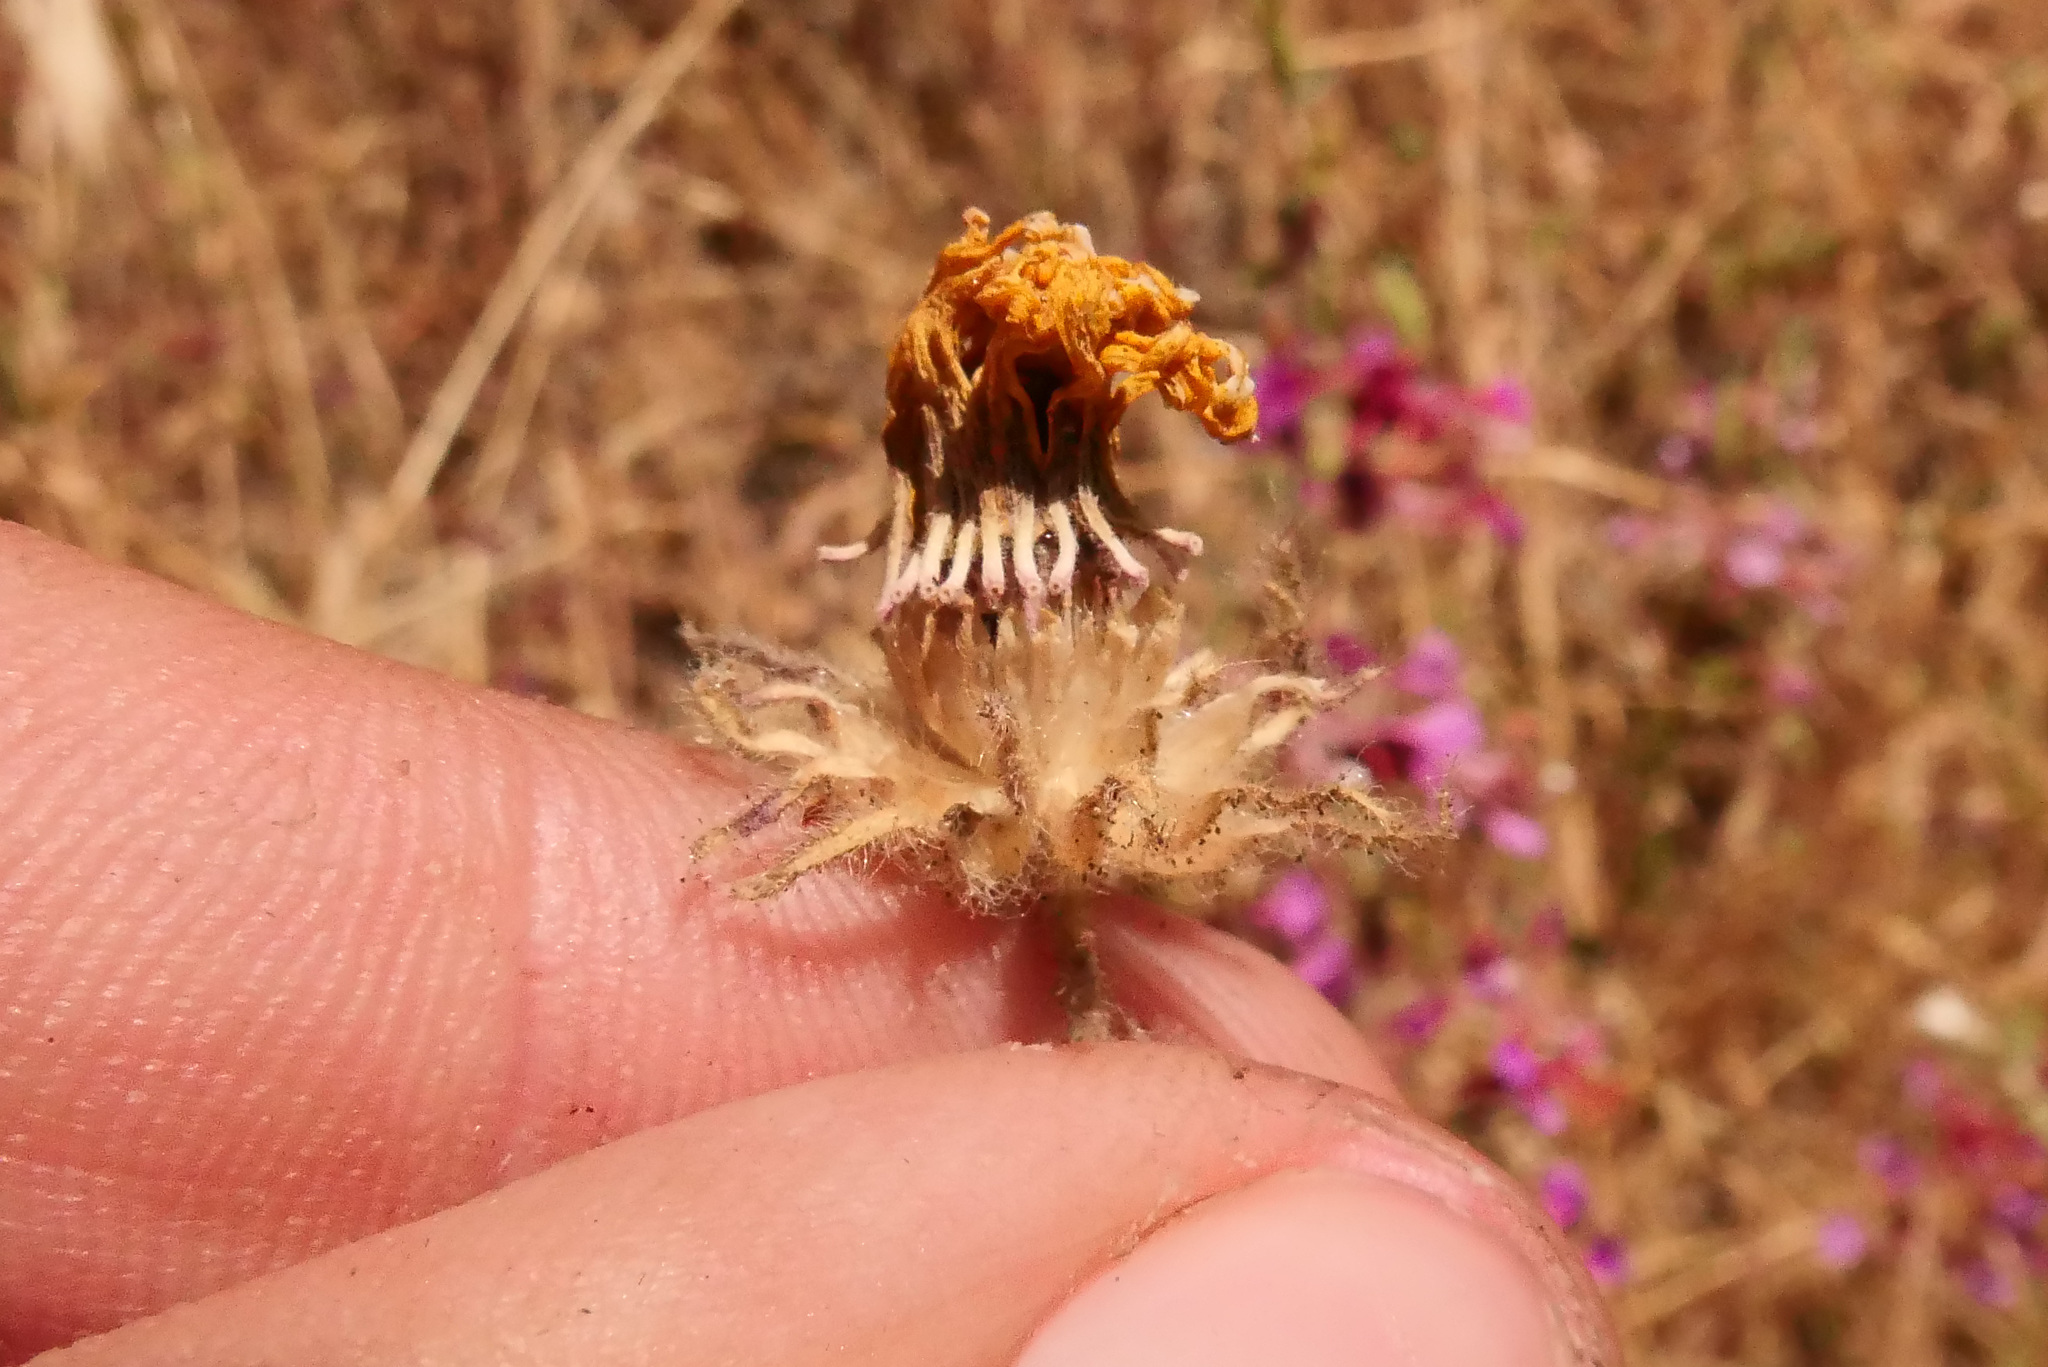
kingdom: Plantae
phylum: Tracheophyta
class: Magnoliopsida
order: Asterales
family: Asteraceae
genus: Madia
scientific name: Madia elegans
